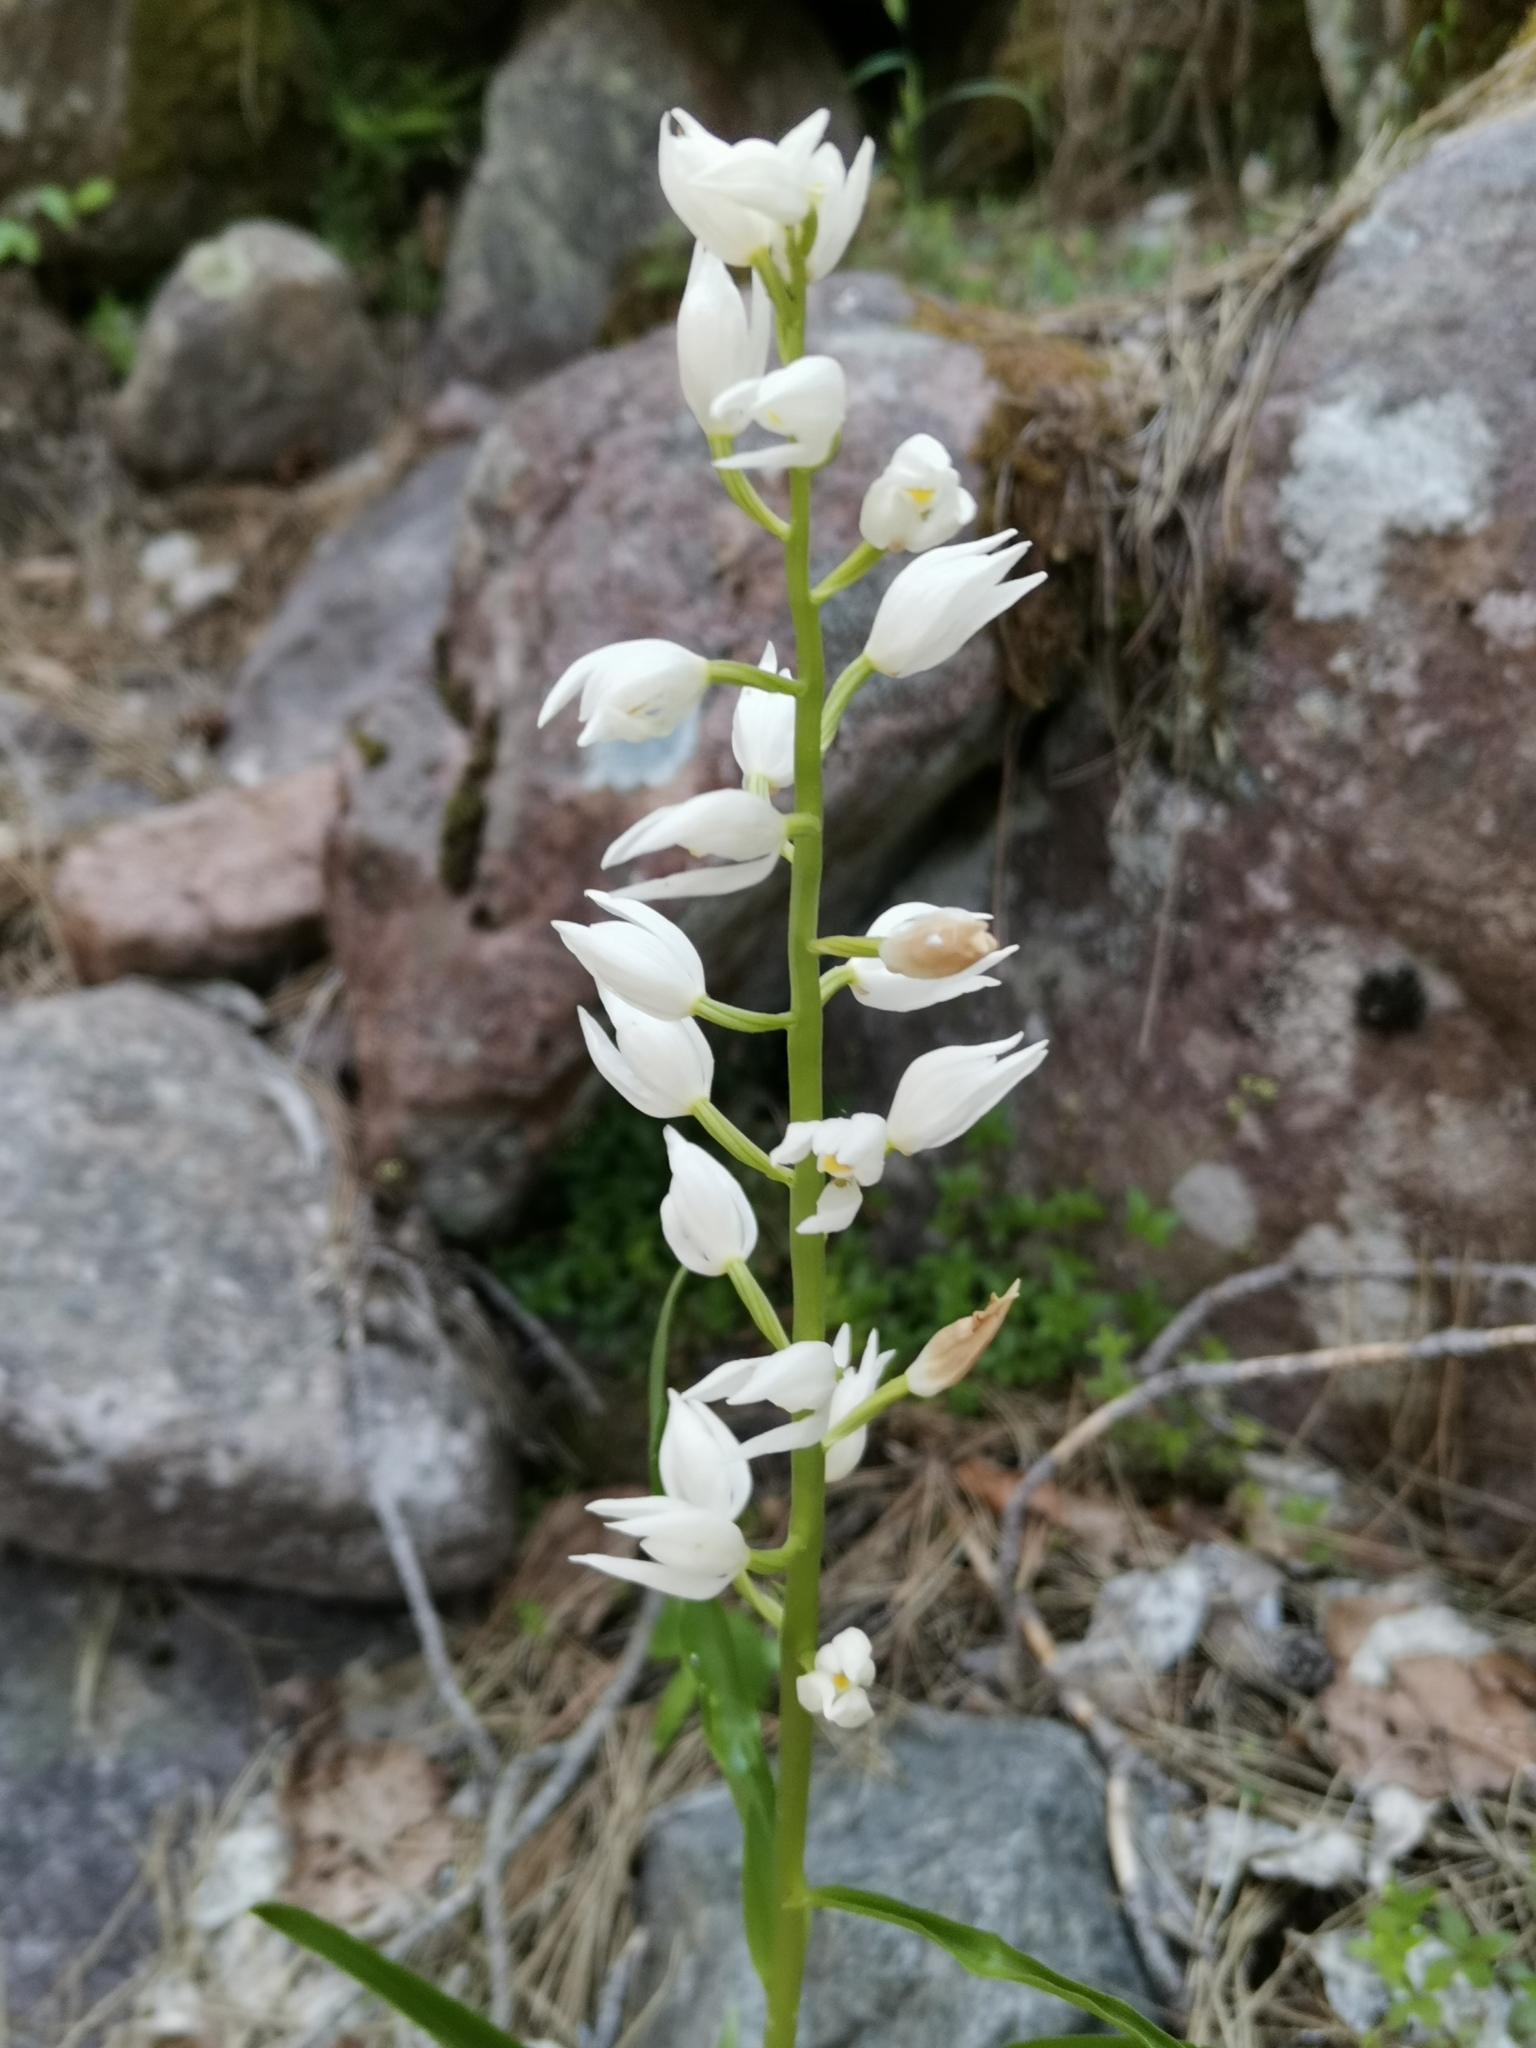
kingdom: Plantae
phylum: Tracheophyta
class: Liliopsida
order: Asparagales
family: Orchidaceae
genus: Cephalanthera
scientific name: Cephalanthera longifolia
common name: Narrow-leaved helleborine
